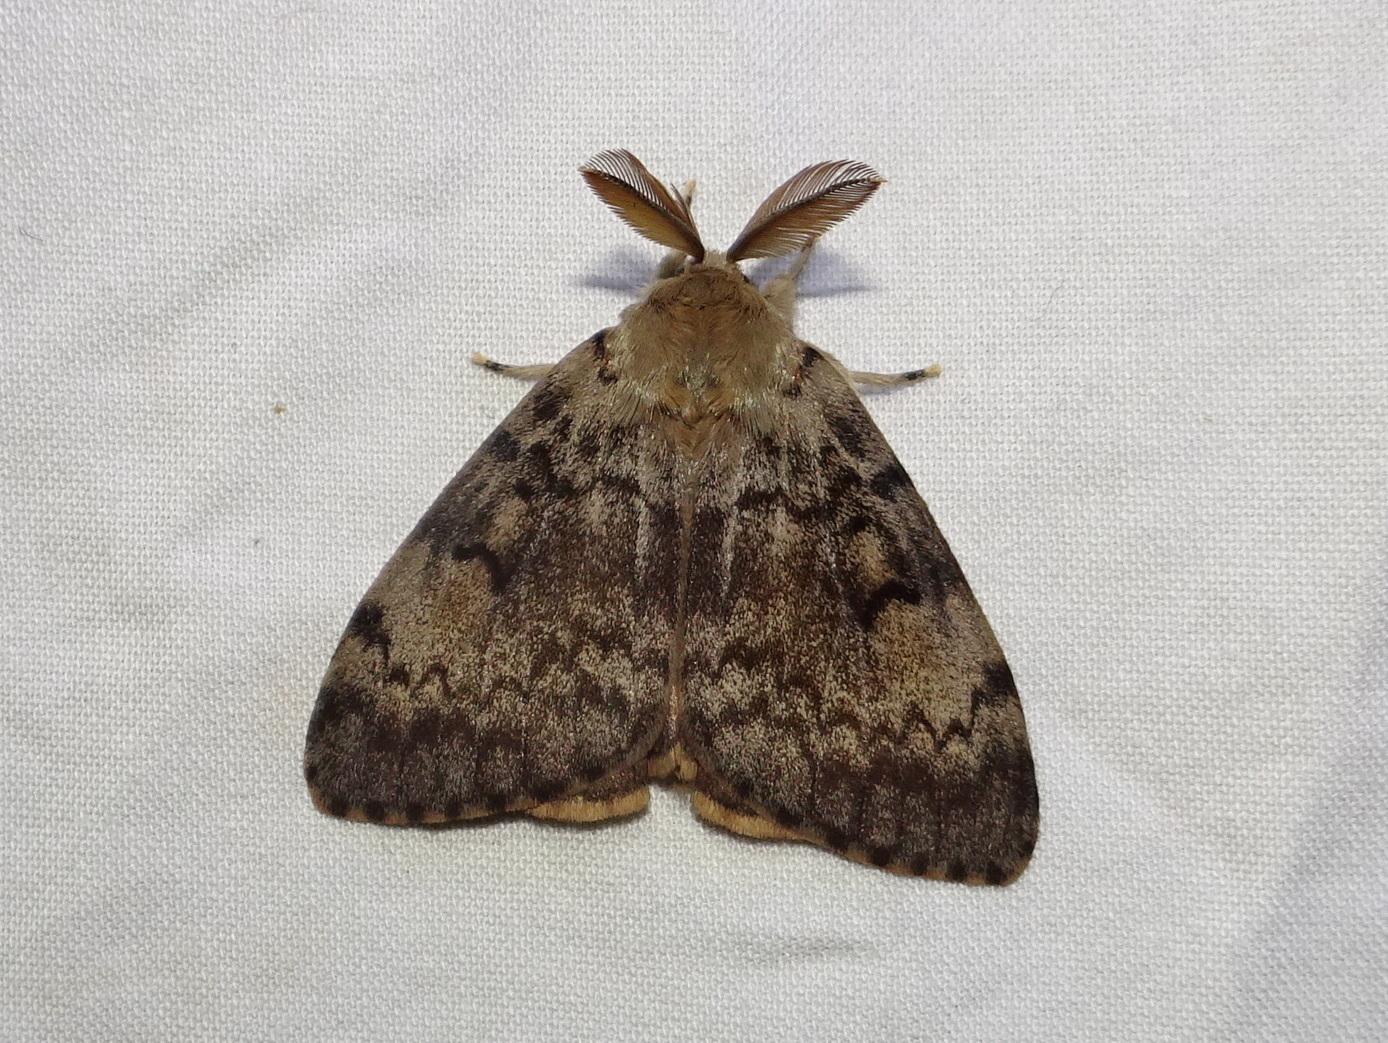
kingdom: Animalia
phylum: Arthropoda
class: Insecta
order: Lepidoptera
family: Erebidae
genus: Lymantria
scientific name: Lymantria dispar
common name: Gypsy moth
